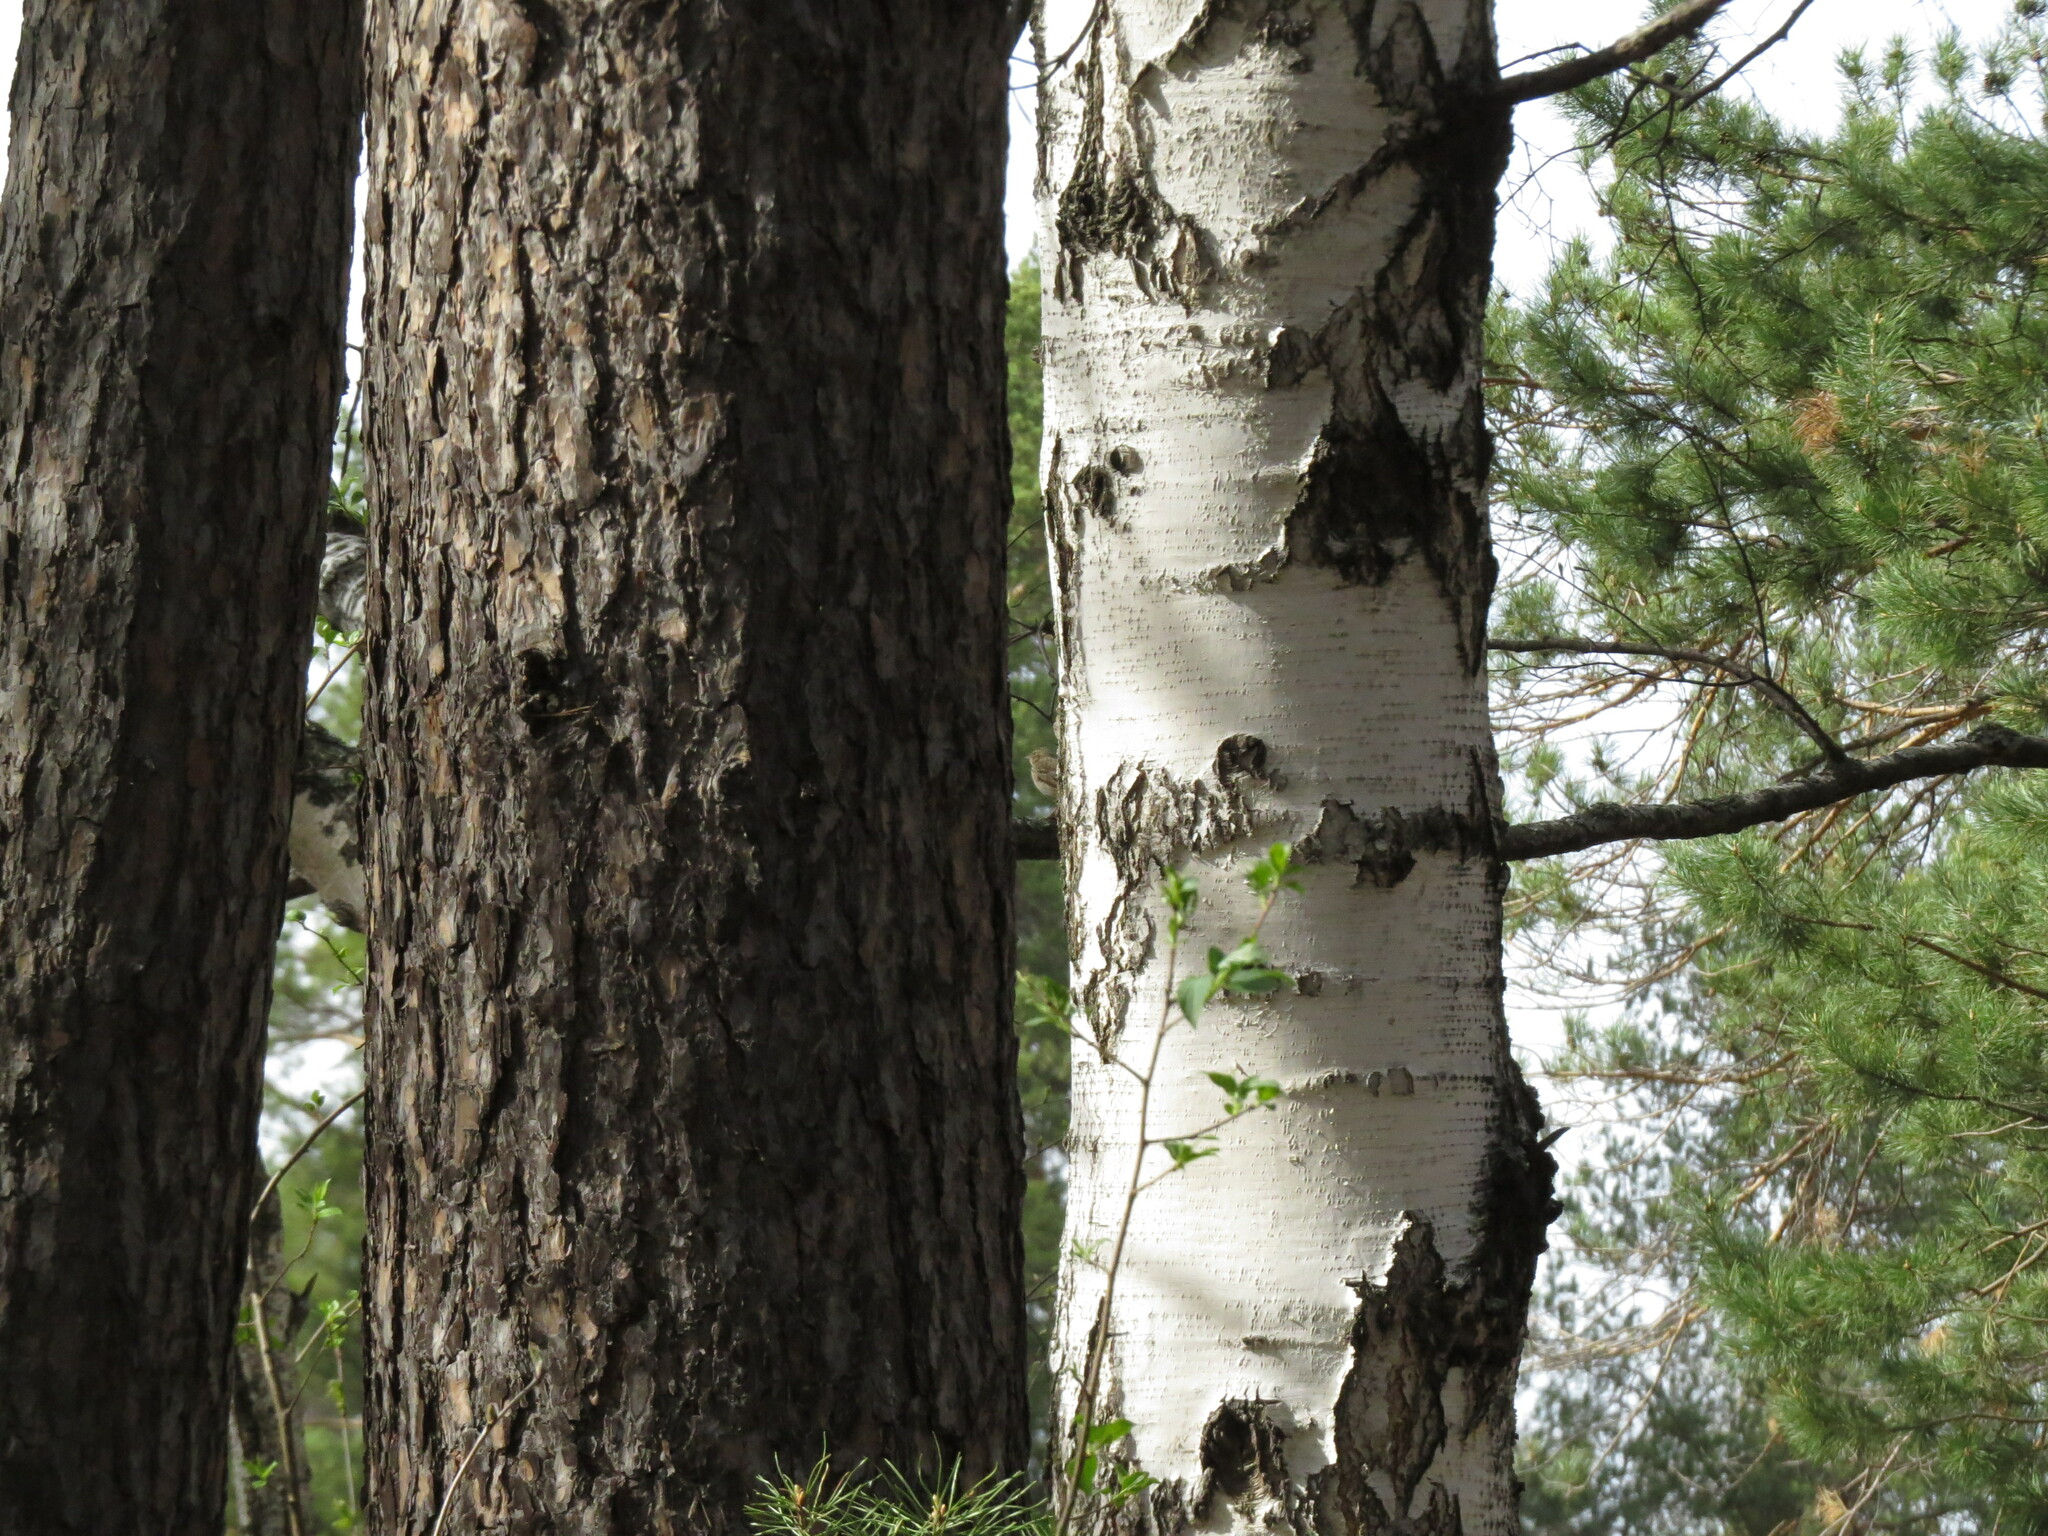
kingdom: Animalia
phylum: Chordata
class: Aves
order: Passeriformes
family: Motacillidae
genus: Anthus
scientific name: Anthus trivialis
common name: Tree pipit
